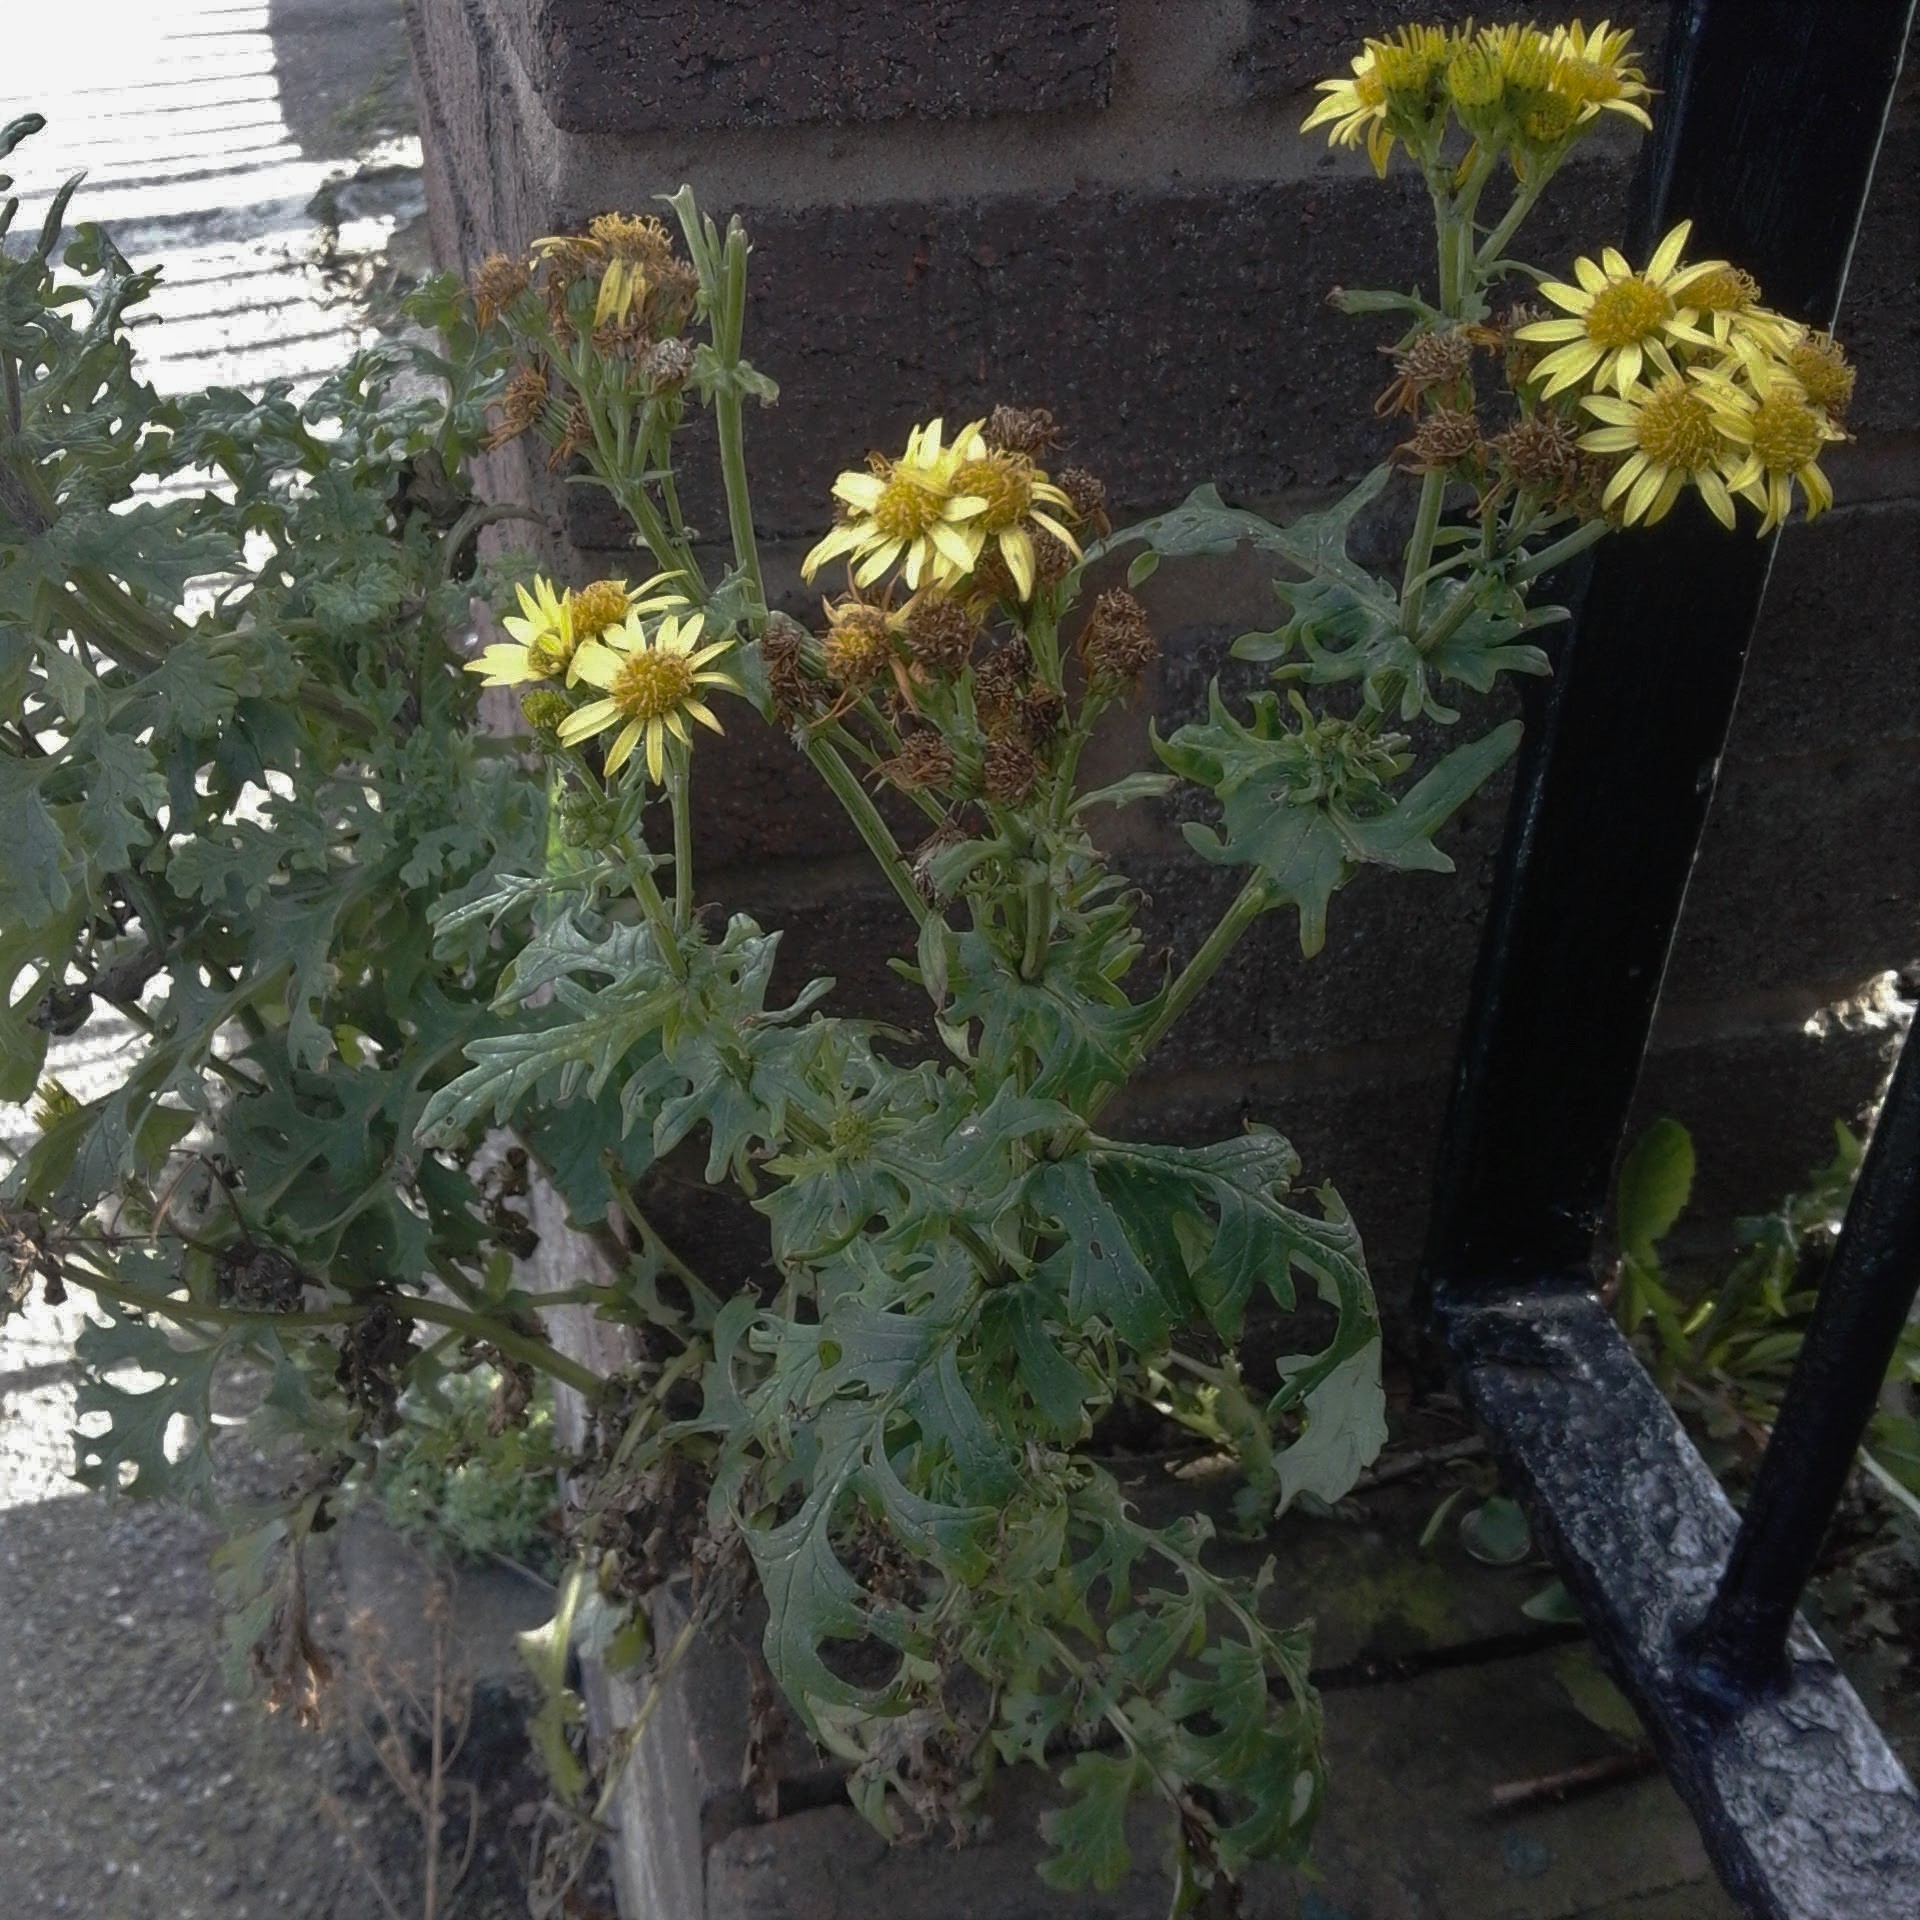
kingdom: Plantae
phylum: Tracheophyta
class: Magnoliopsida
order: Asterales
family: Asteraceae
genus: Senecio
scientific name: Senecio squalidus
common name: Oxford ragwort
